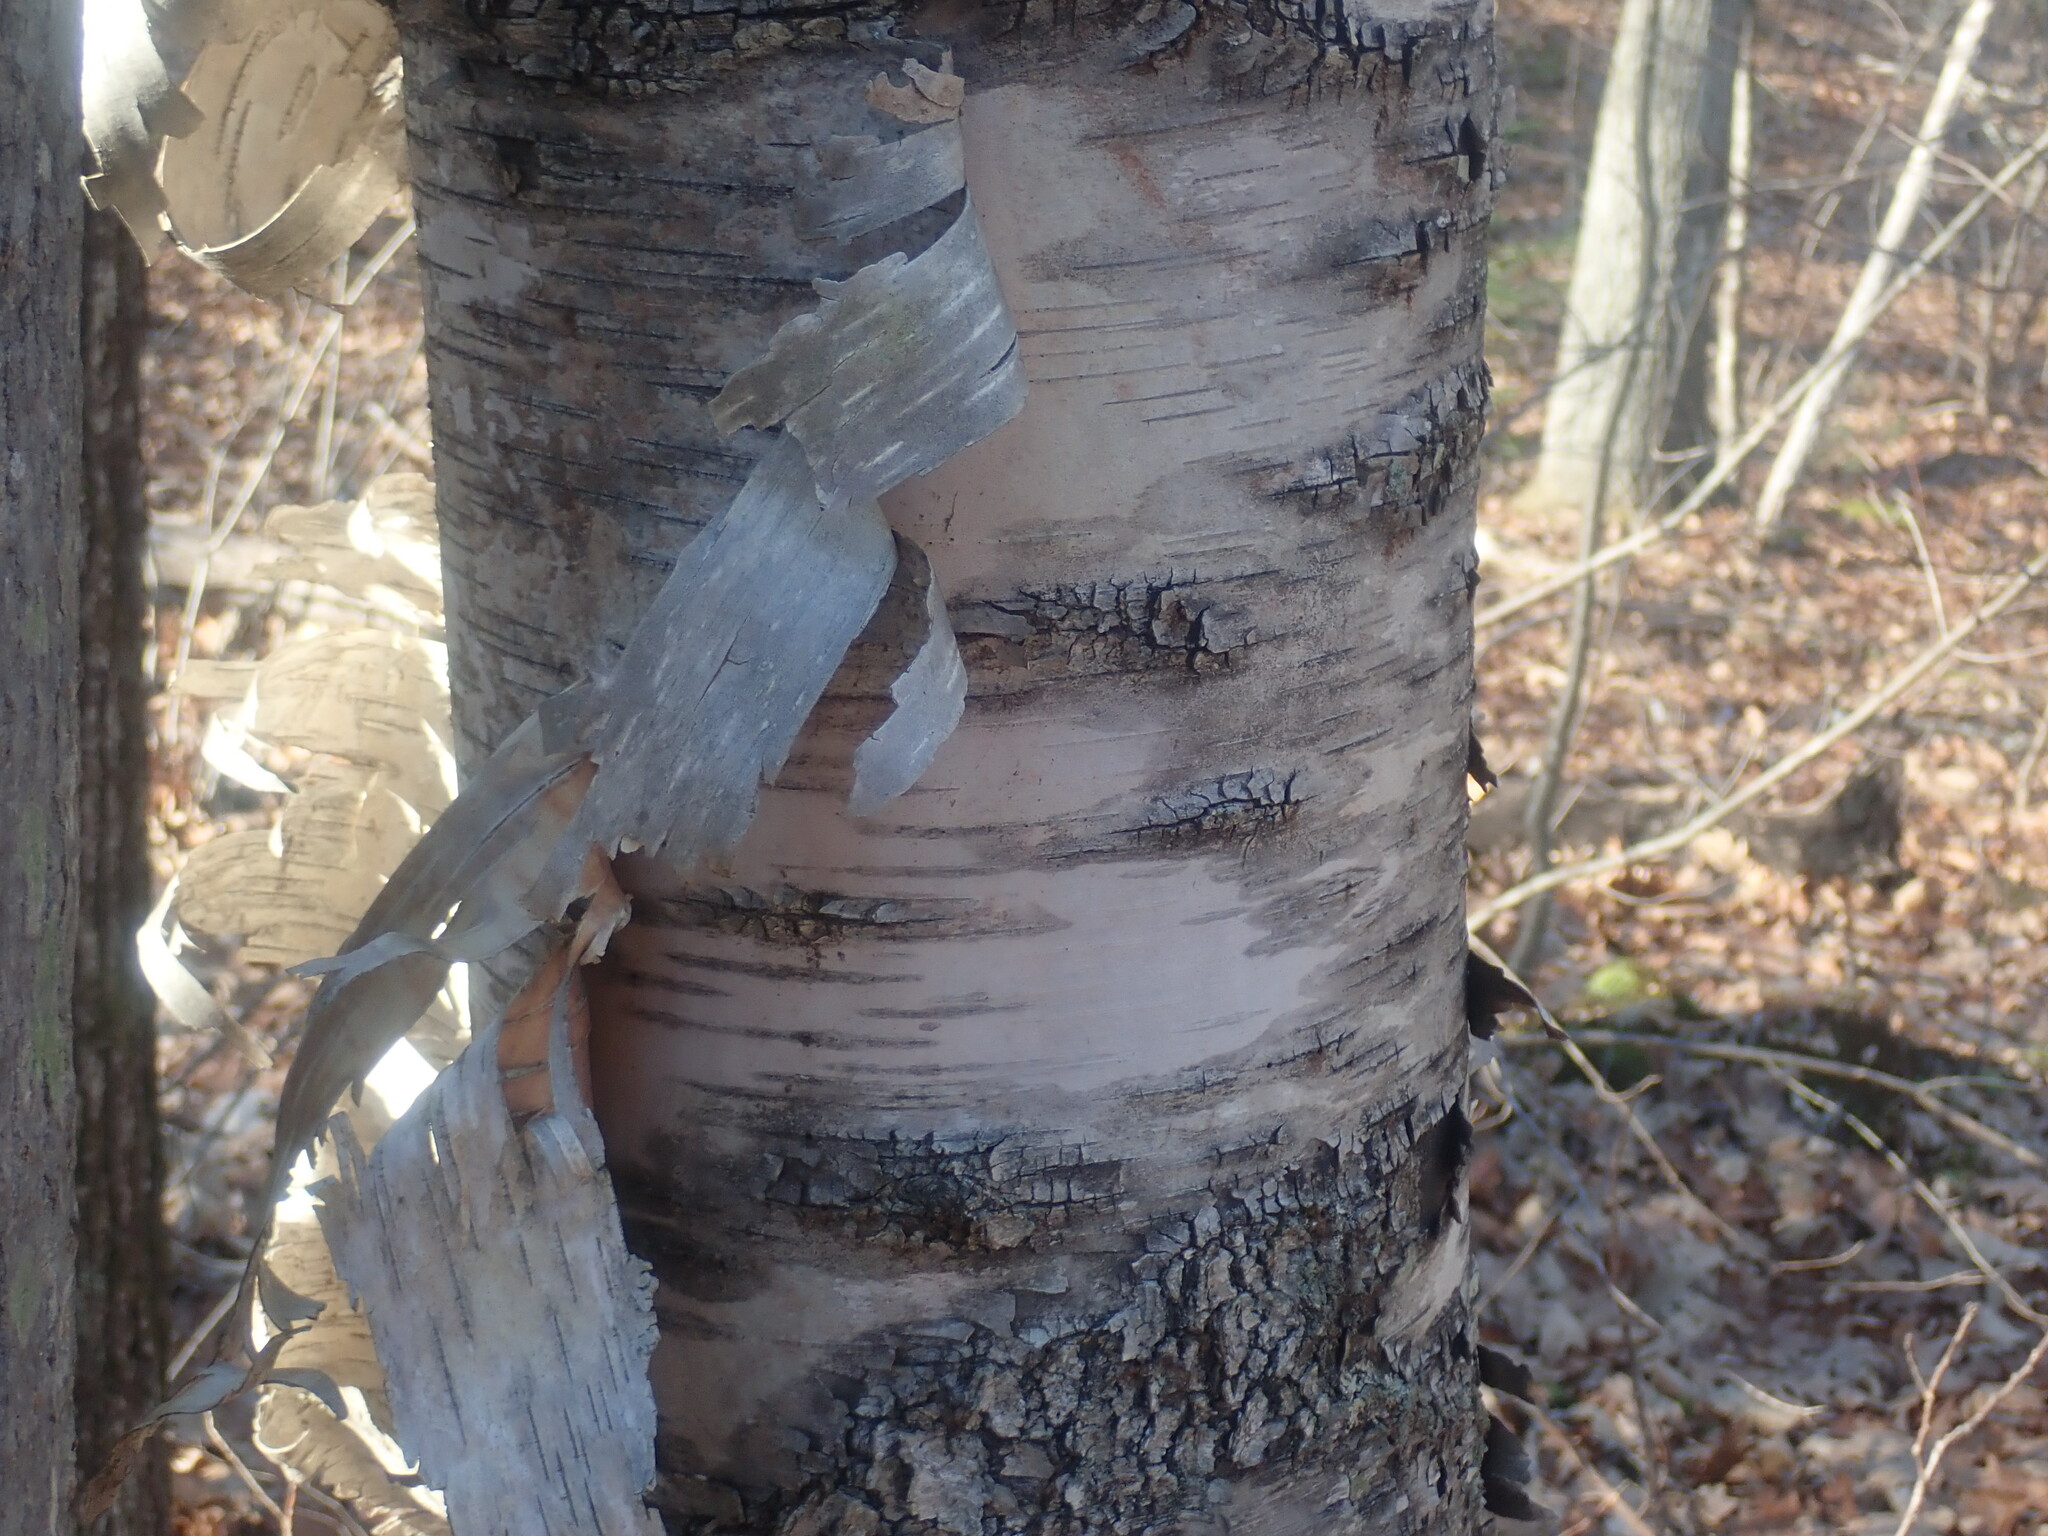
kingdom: Plantae
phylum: Tracheophyta
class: Magnoliopsida
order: Fagales
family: Betulaceae
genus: Betula
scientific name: Betula papyrifera
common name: Paper birch
